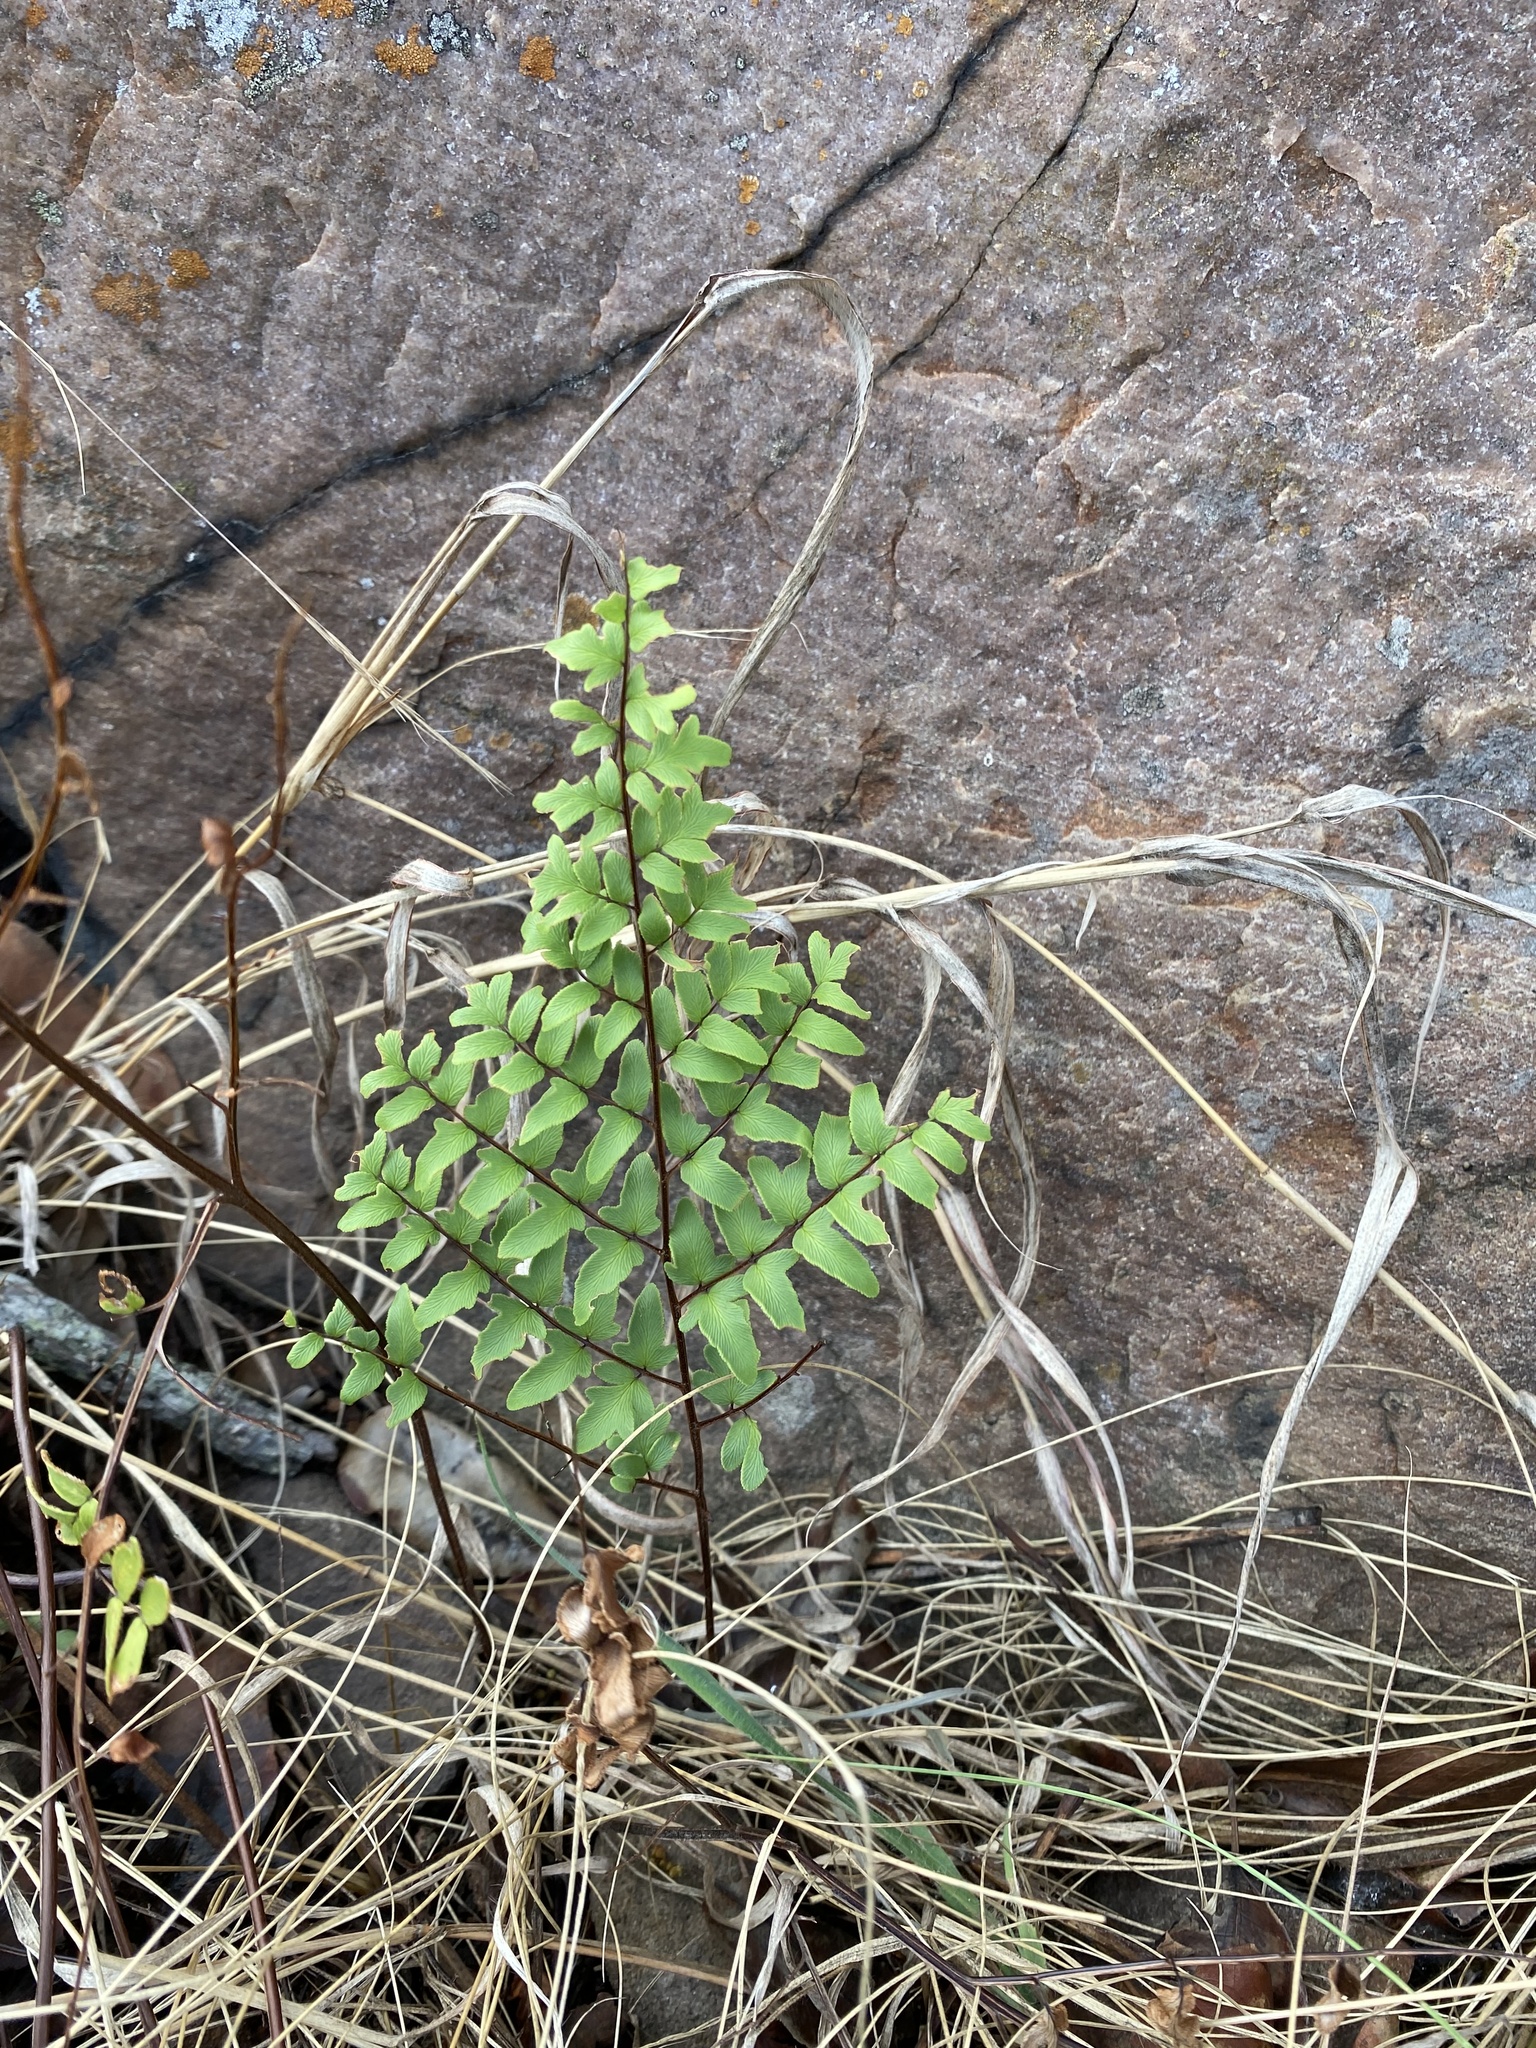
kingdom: Plantae
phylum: Tracheophyta
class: Polypodiopsida
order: Polypodiales
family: Pteridaceae
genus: Cheilanthes
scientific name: Cheilanthes viridis
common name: Green cliffbrake
